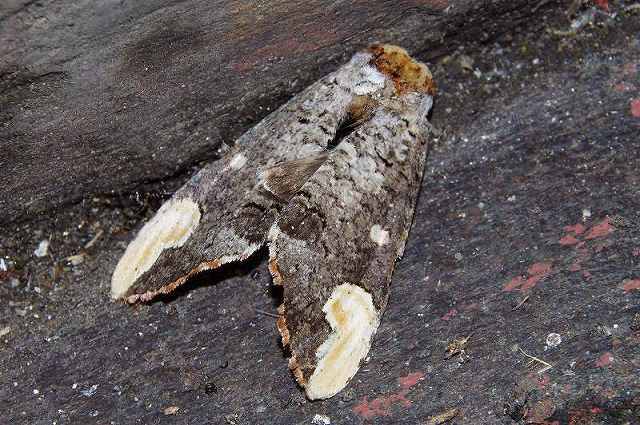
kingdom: Animalia
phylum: Arthropoda
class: Insecta
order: Lepidoptera
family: Notodontidae
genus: Phalera
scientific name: Phalera angustipennis
